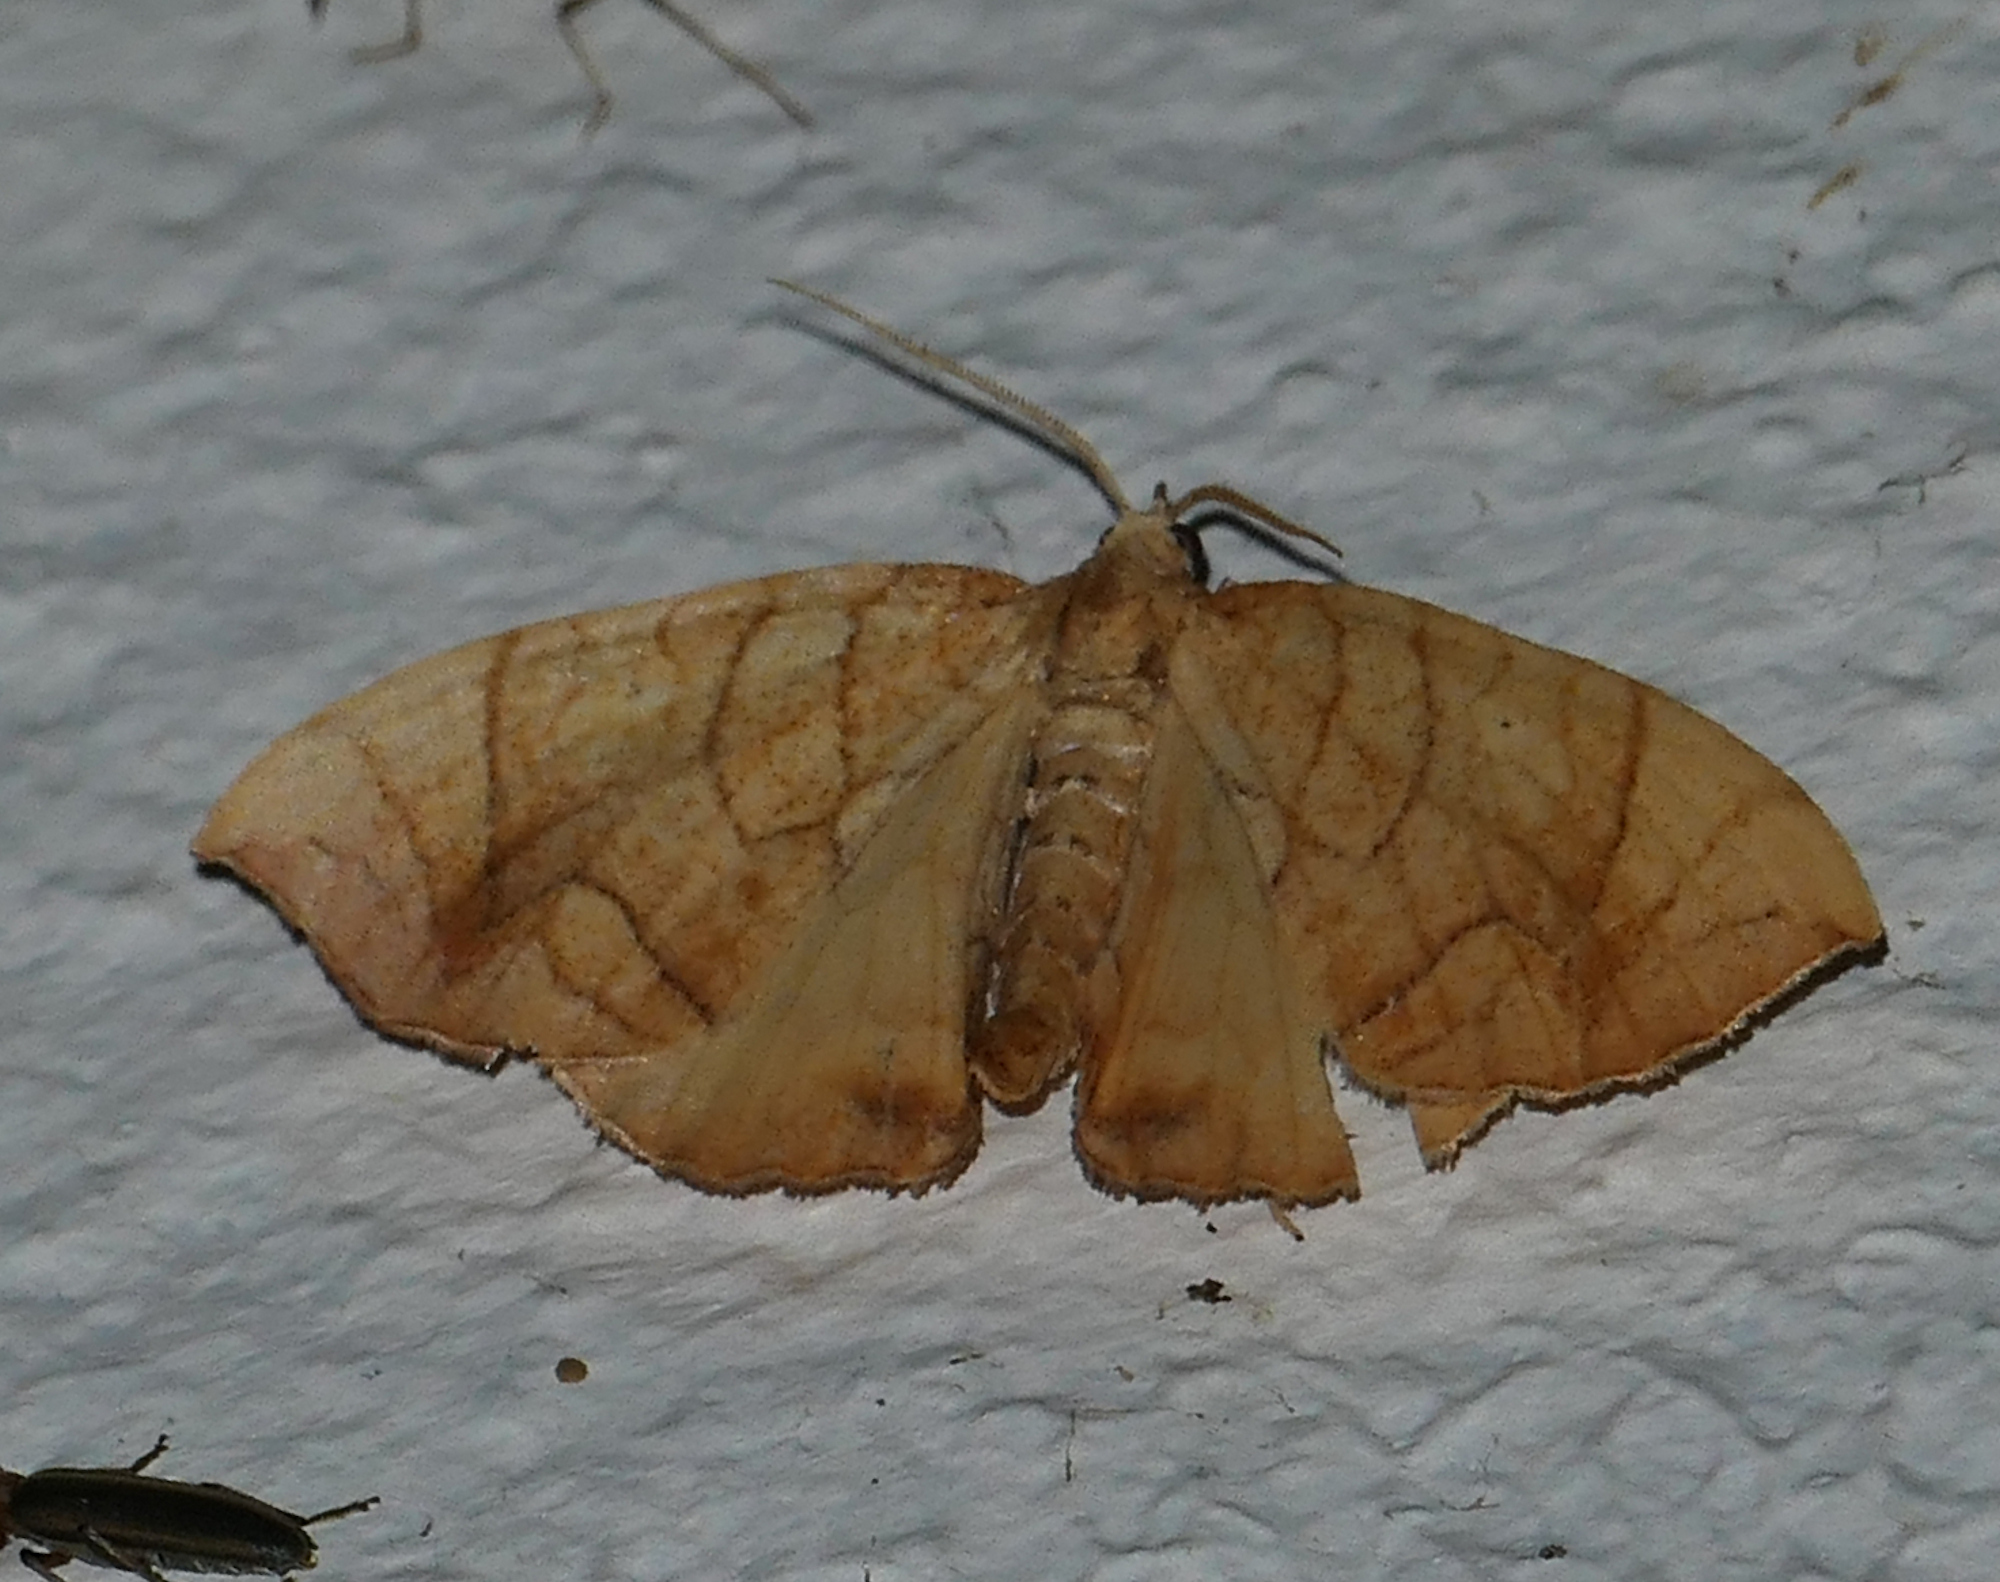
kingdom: Animalia
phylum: Arthropoda
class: Insecta
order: Lepidoptera
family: Geometridae
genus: Eulithis
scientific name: Eulithis
